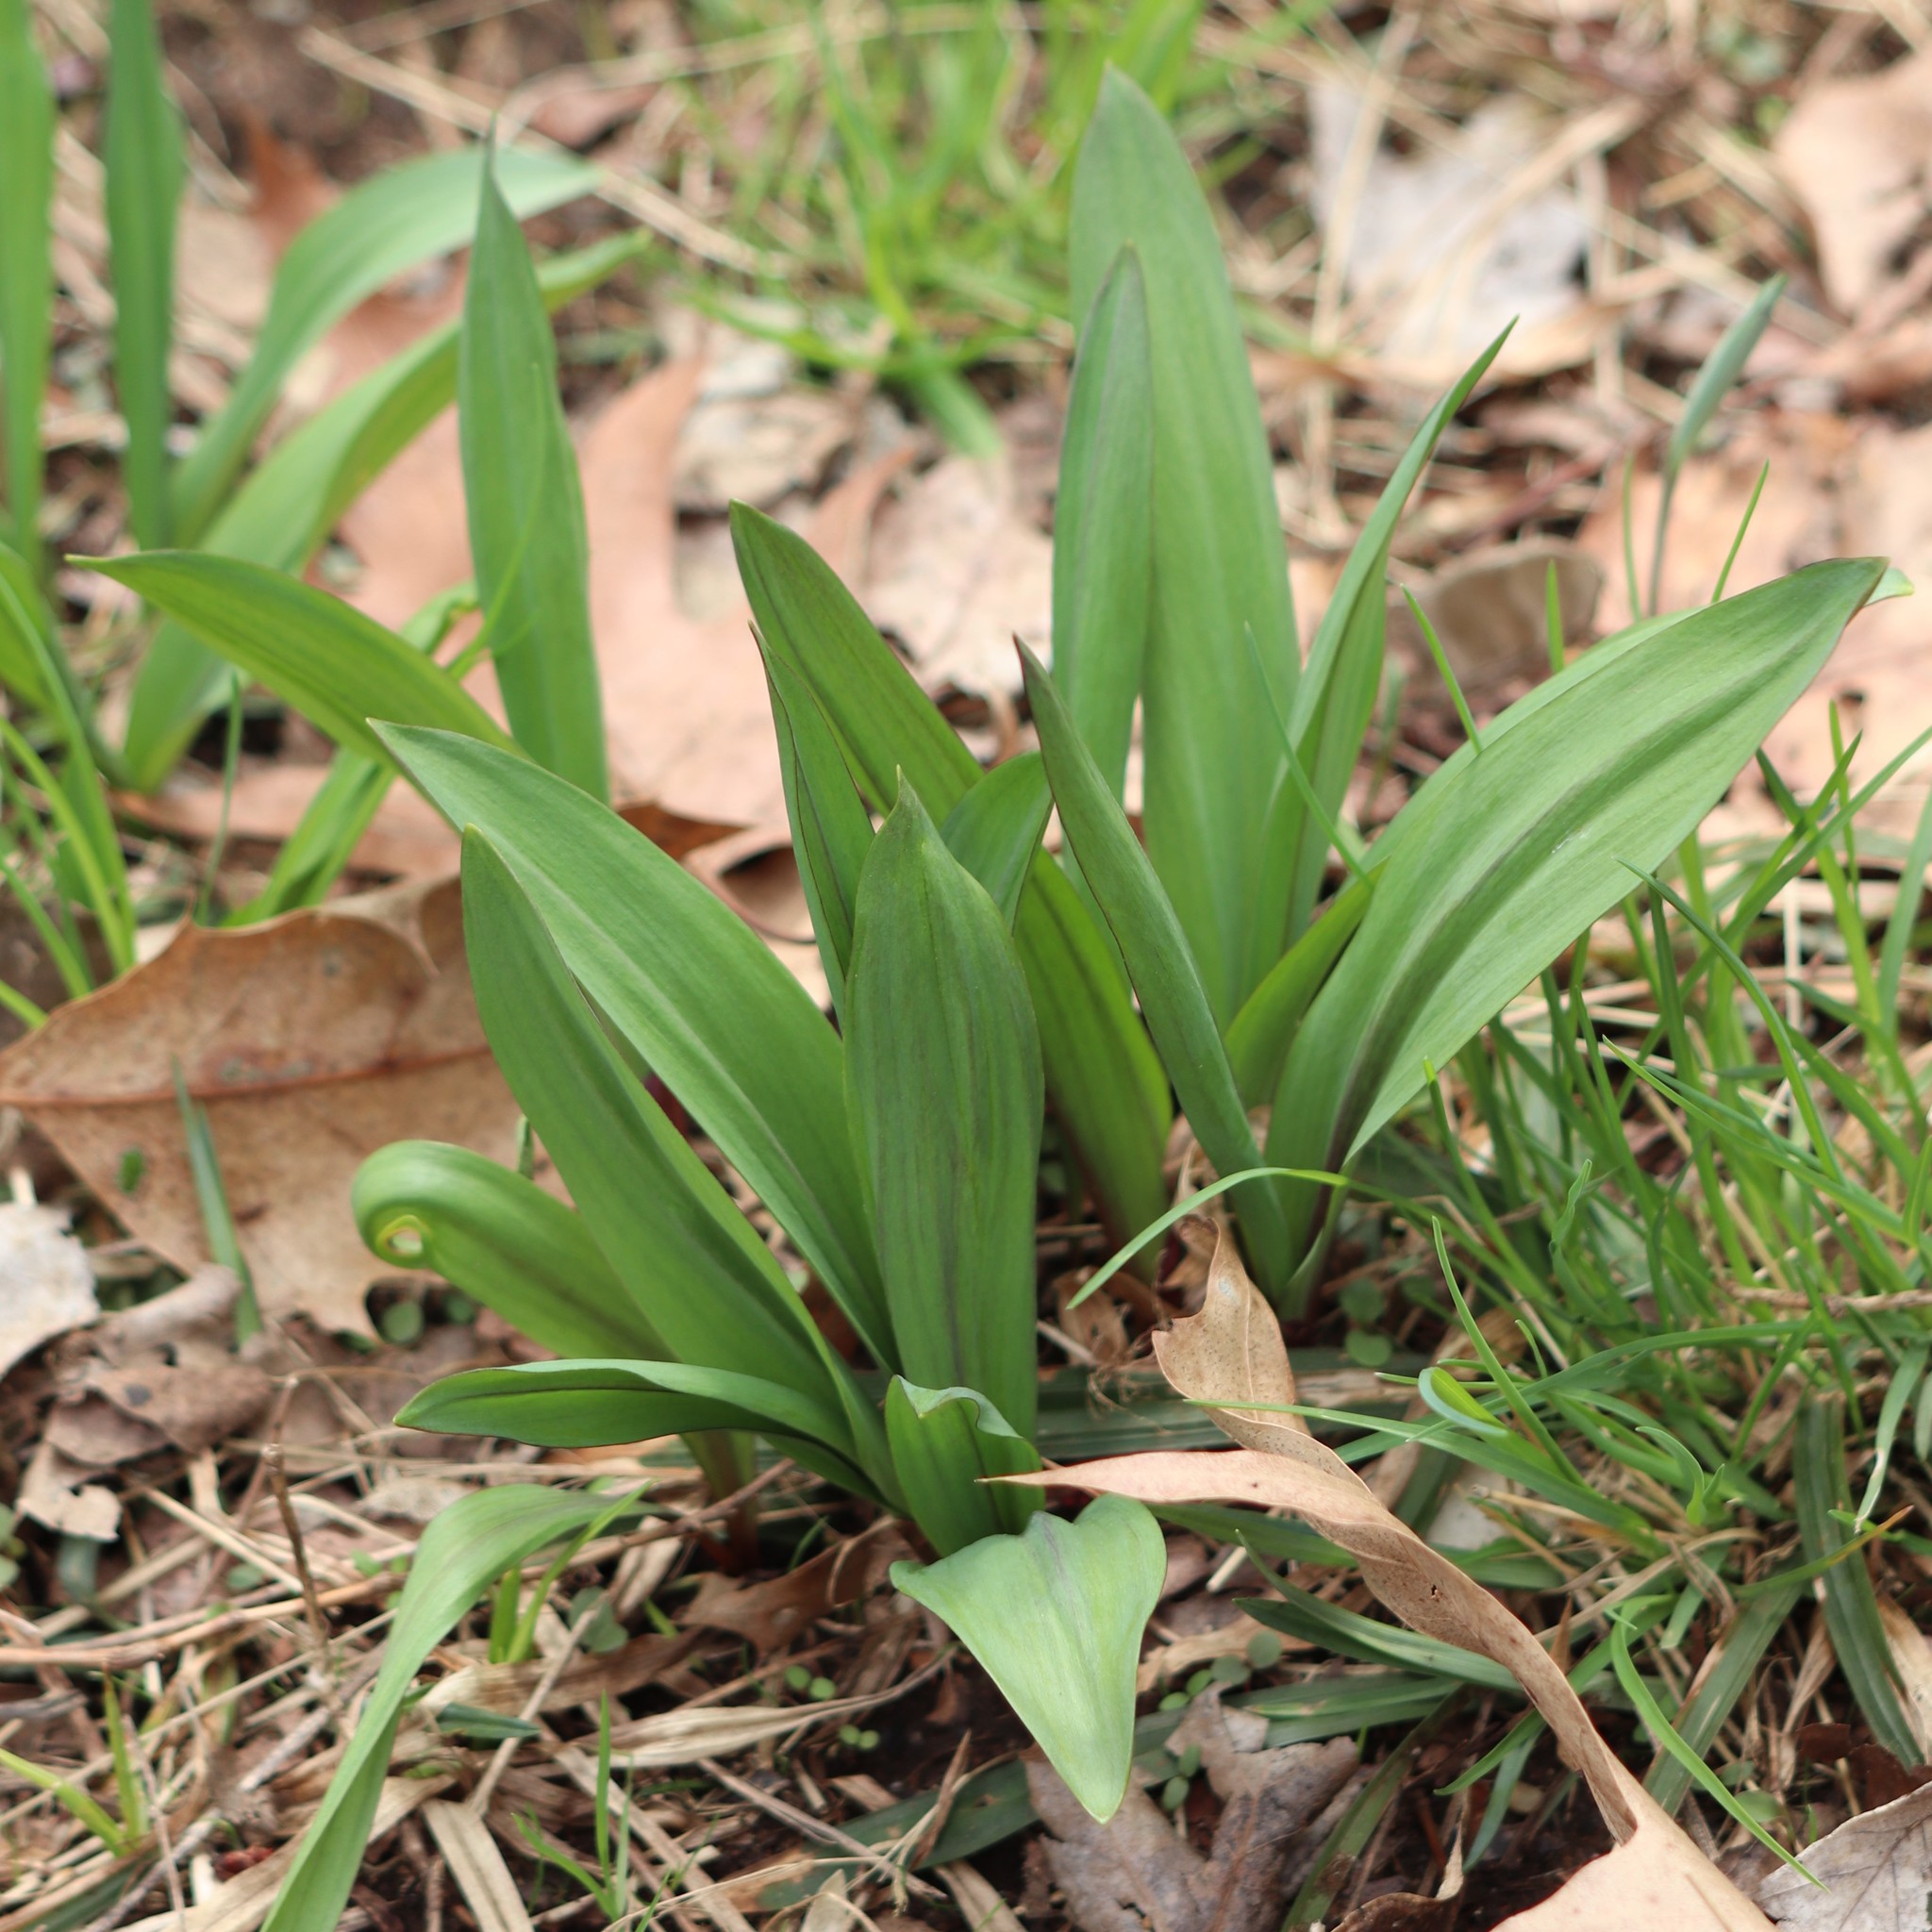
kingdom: Plantae
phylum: Tracheophyta
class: Liliopsida
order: Asparagales
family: Amaryllidaceae
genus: Allium
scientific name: Allium tricoccum
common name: Ramp
